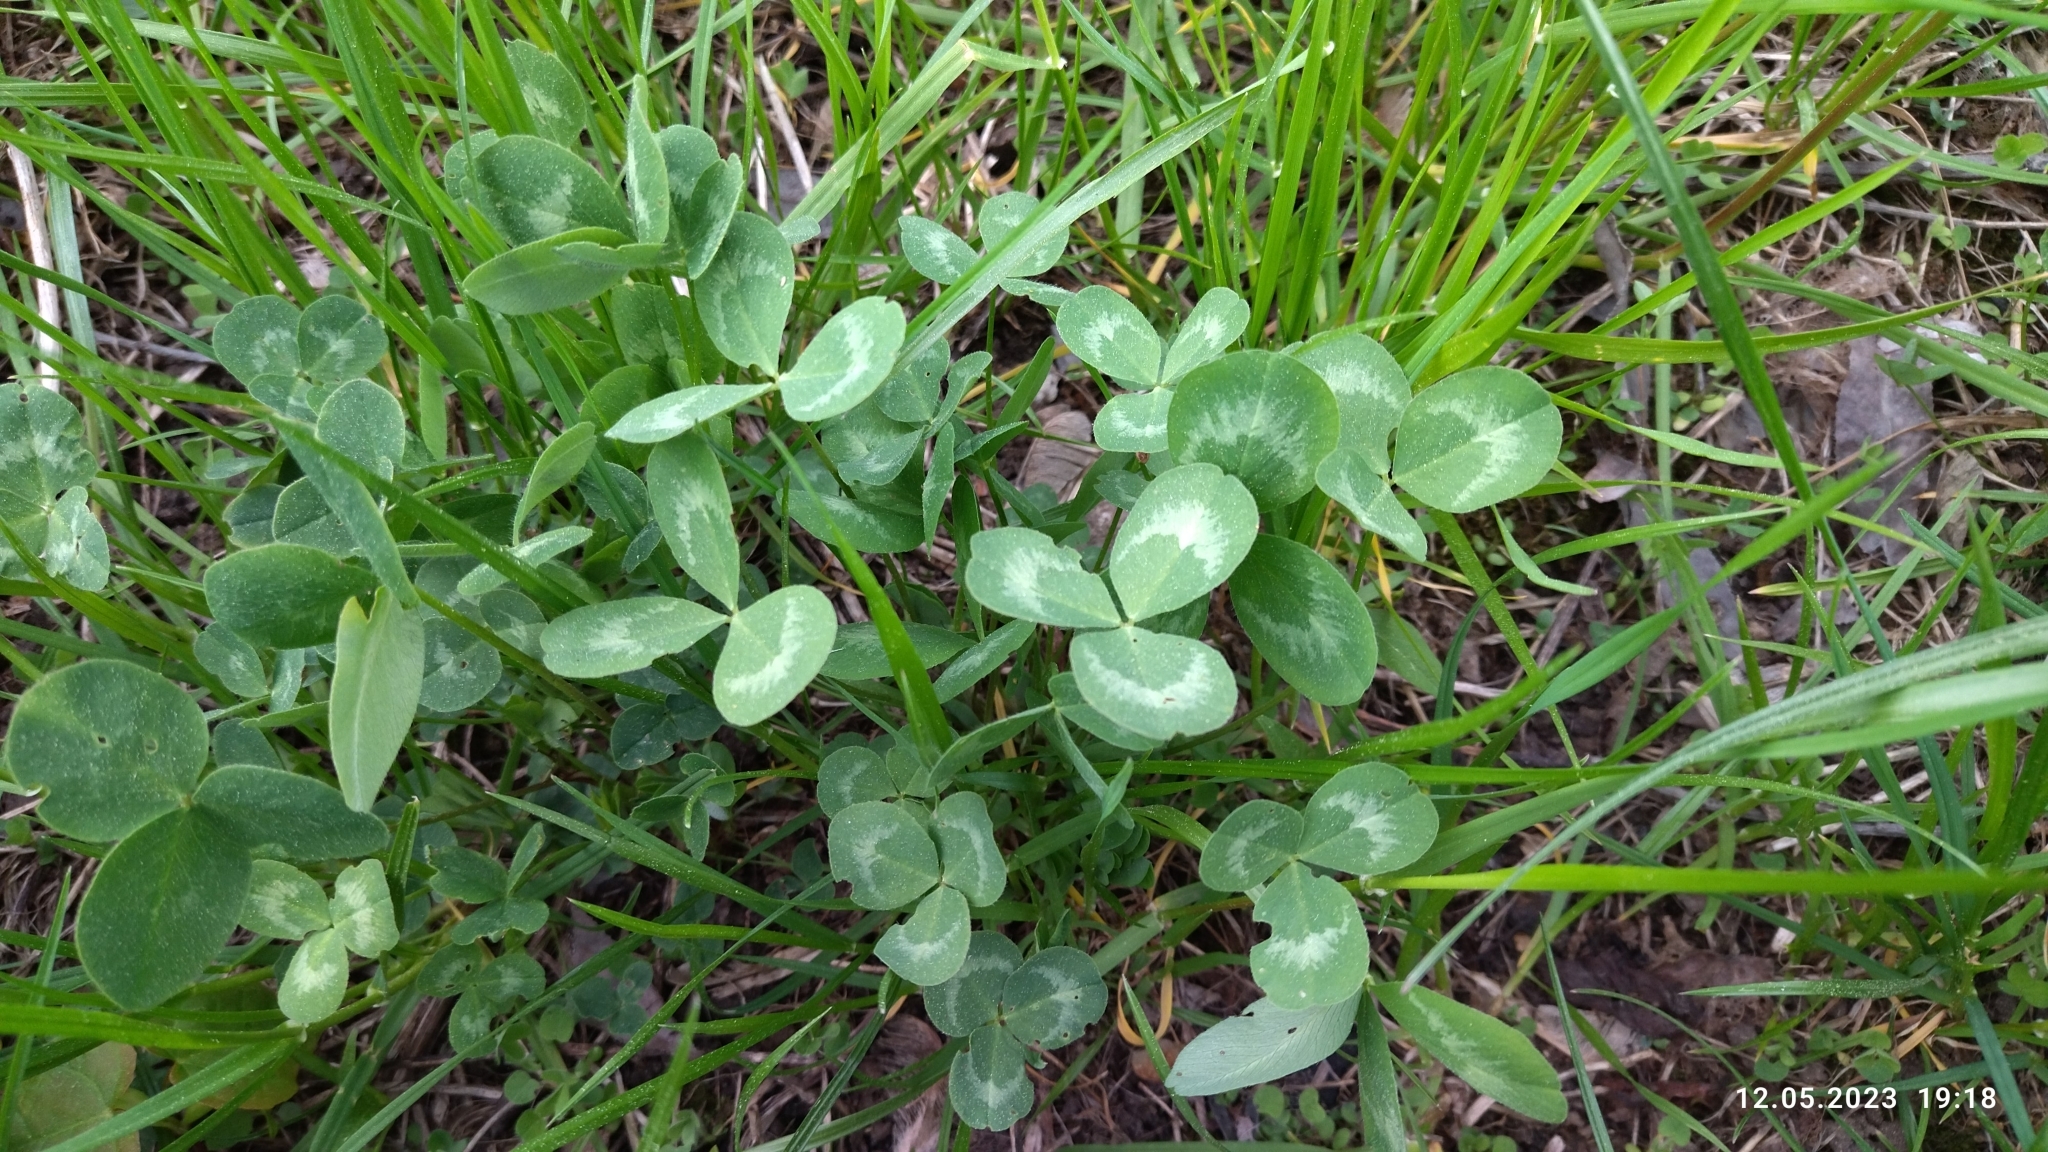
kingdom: Plantae
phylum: Tracheophyta
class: Magnoliopsida
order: Fabales
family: Fabaceae
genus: Trifolium
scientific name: Trifolium pratense
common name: Red clover
